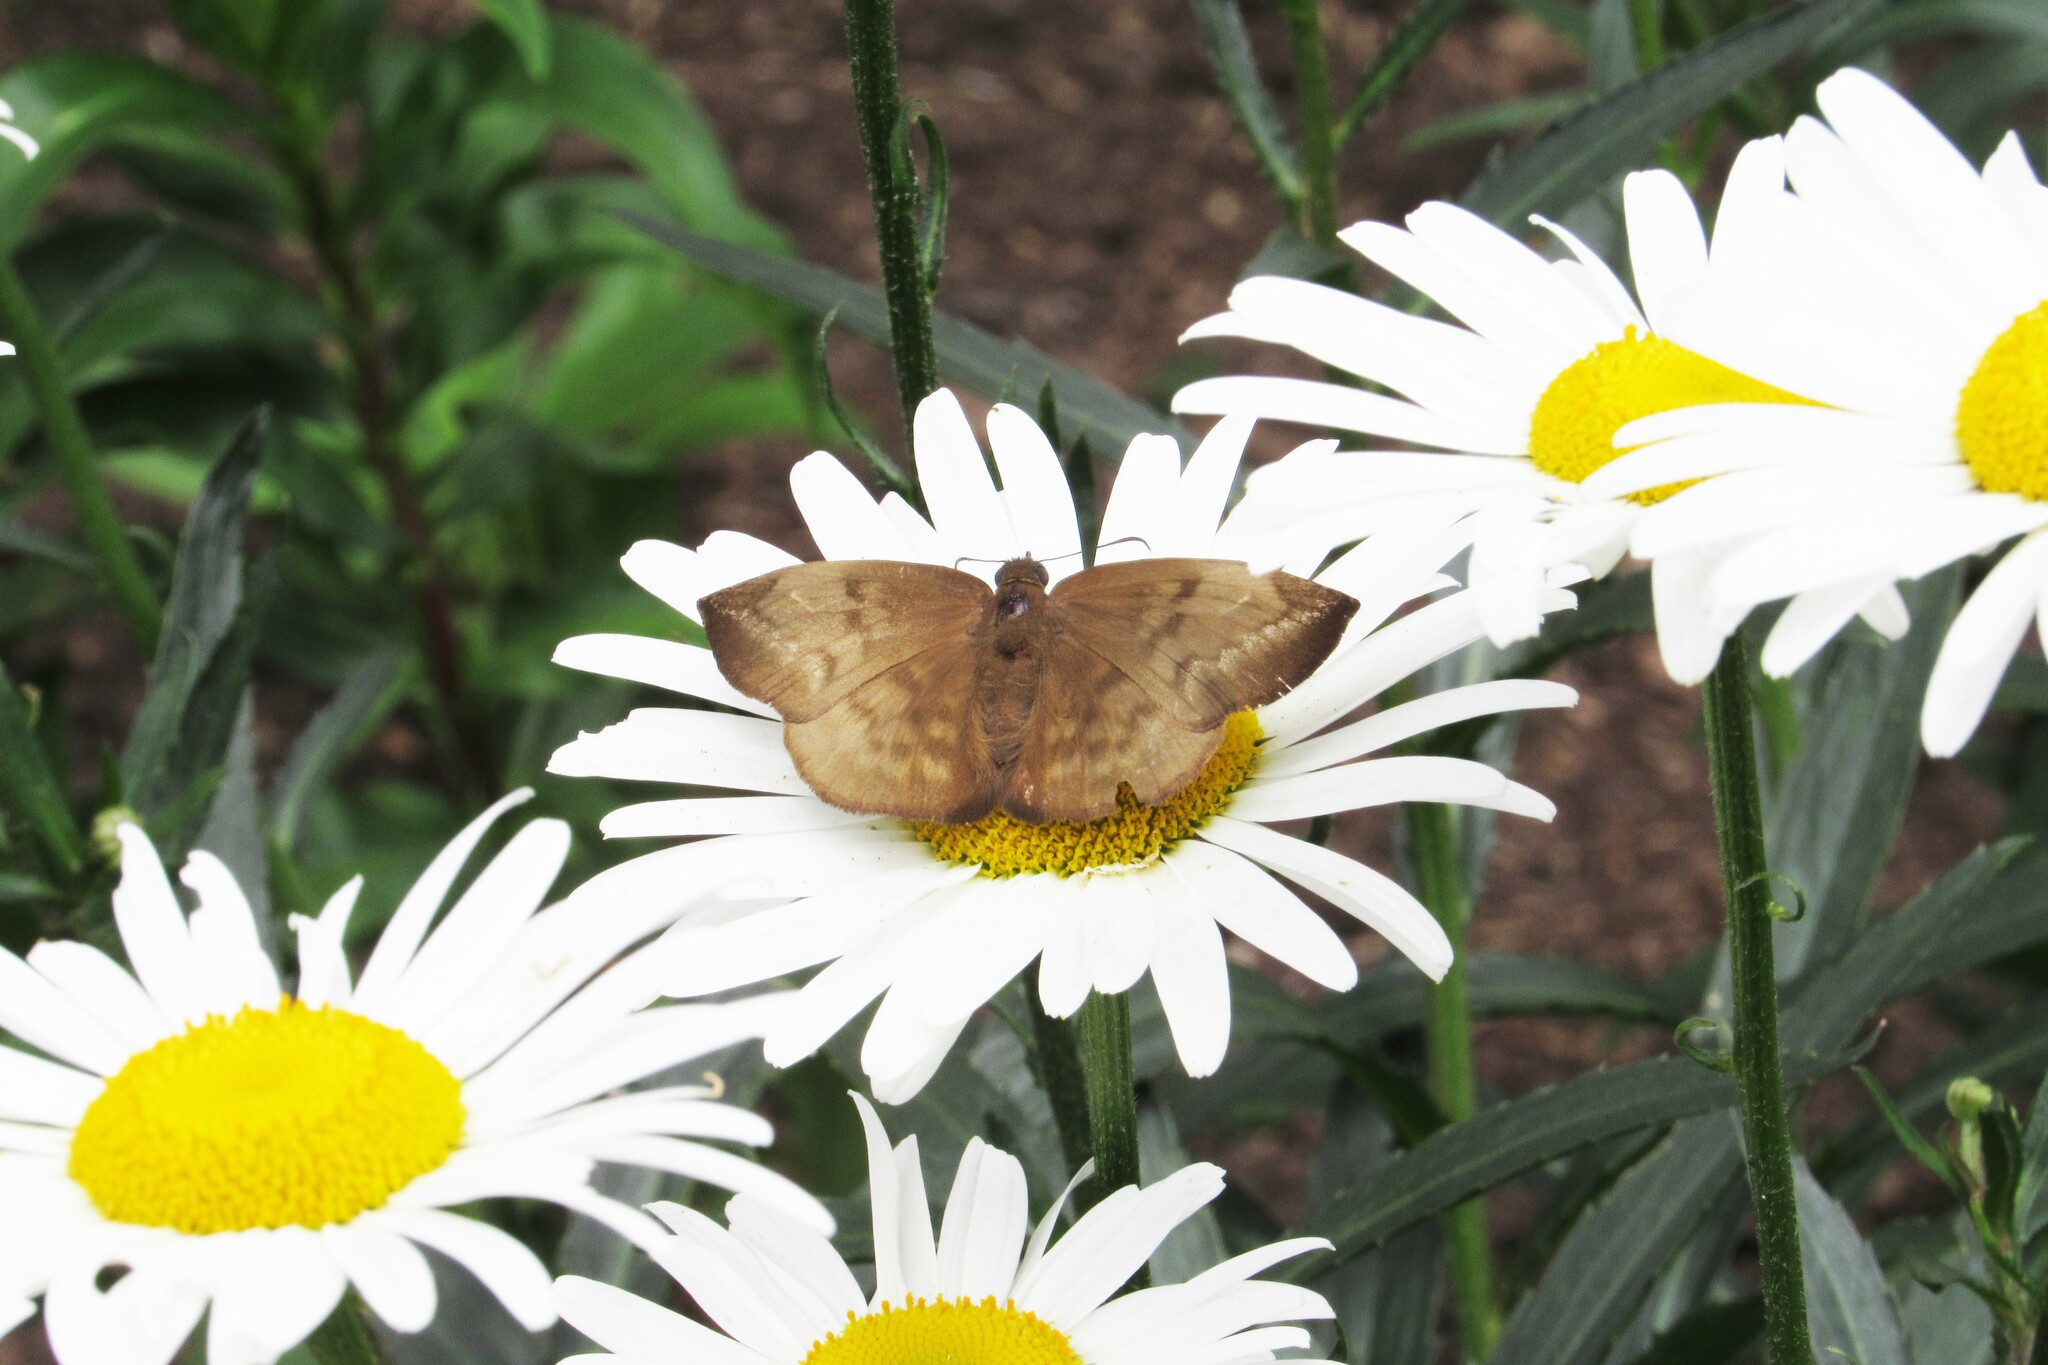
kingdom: Animalia
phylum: Arthropoda
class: Insecta
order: Lepidoptera
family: Hesperiidae
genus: Achlyodes
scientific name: Achlyodes pallida
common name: Pale sicklewing
